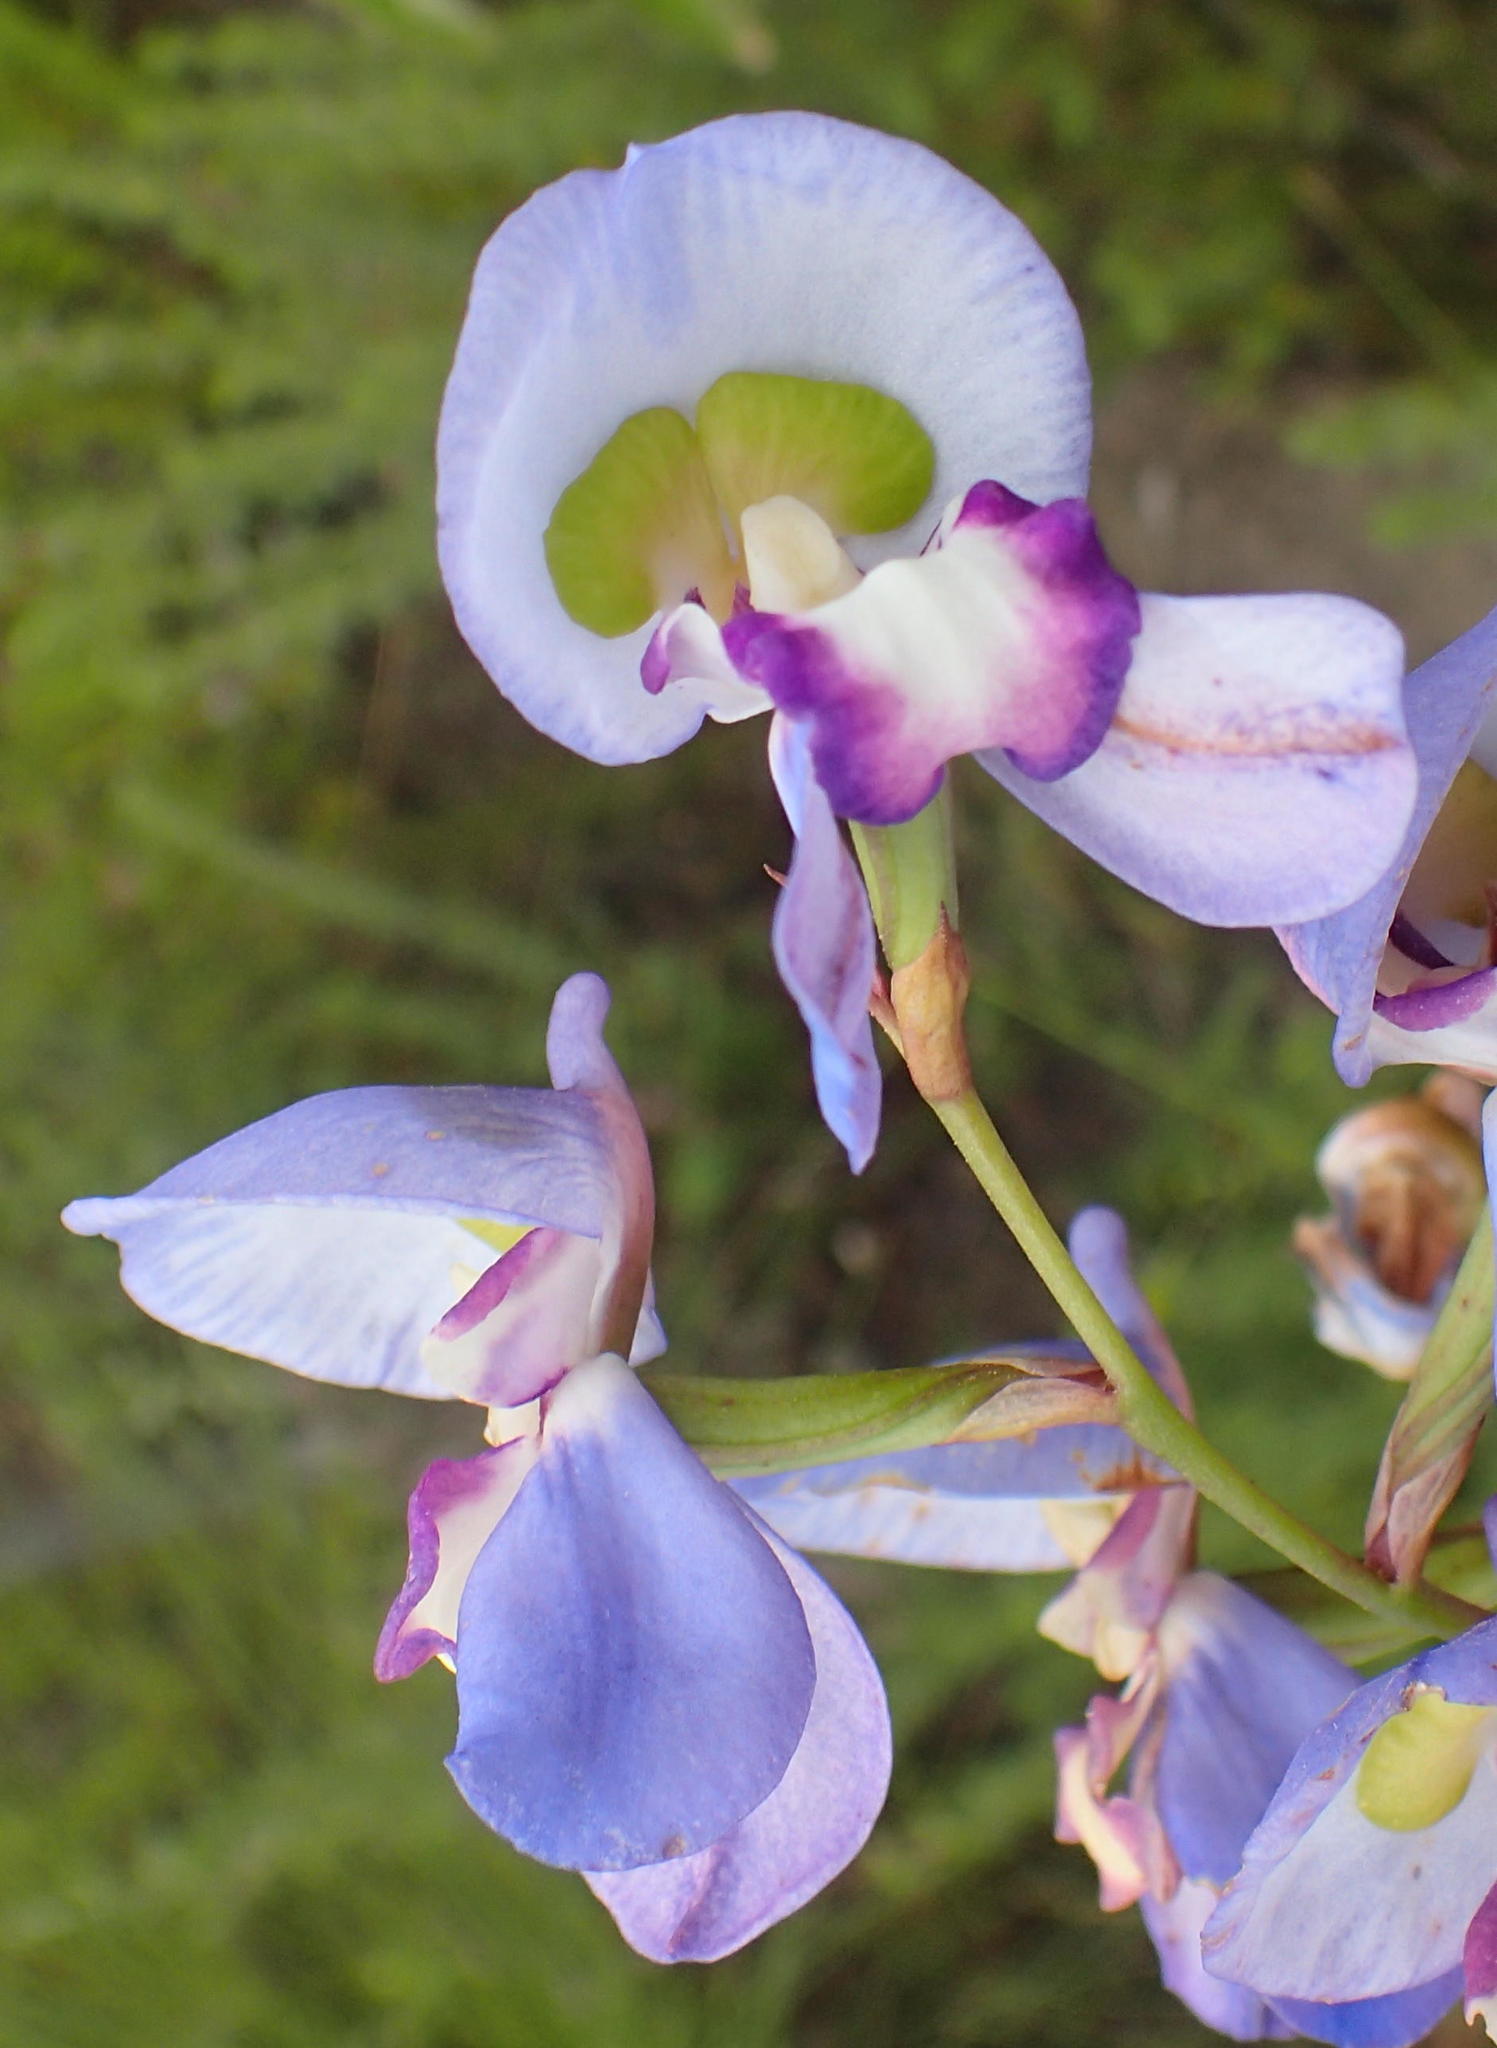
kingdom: Plantae
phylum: Tracheophyta
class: Liliopsida
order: Asparagales
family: Orchidaceae
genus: Disa
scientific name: Disa graminifolia
